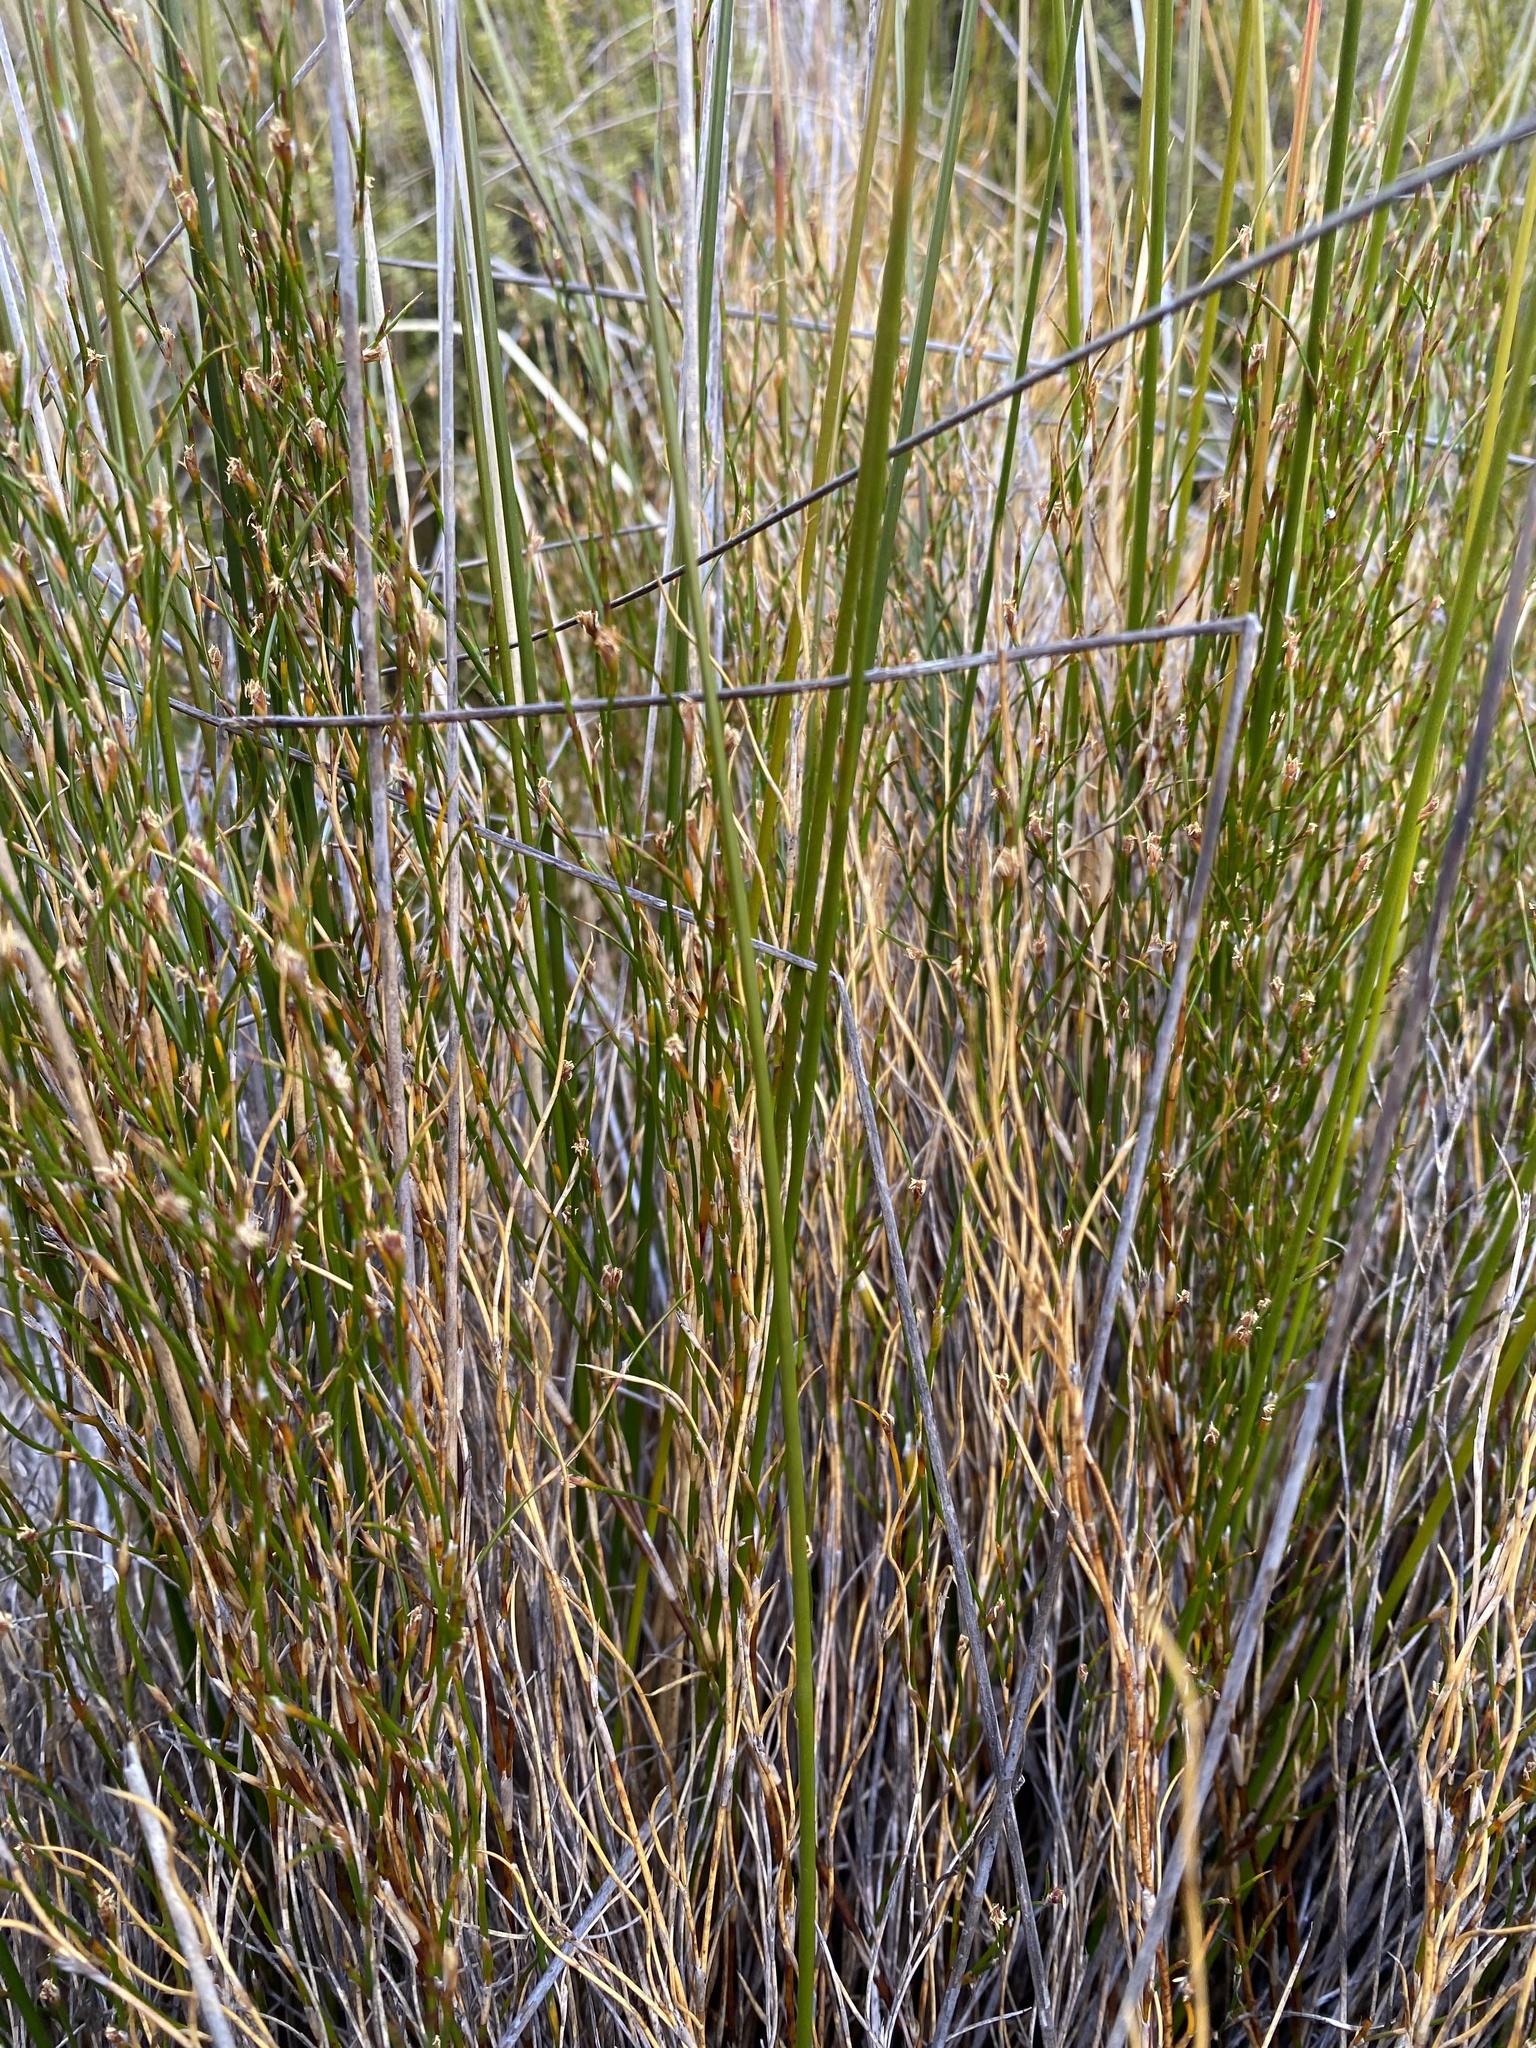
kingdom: Plantae
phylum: Tracheophyta
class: Liliopsida
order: Poales
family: Restionaceae
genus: Empodisma
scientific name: Empodisma minus
